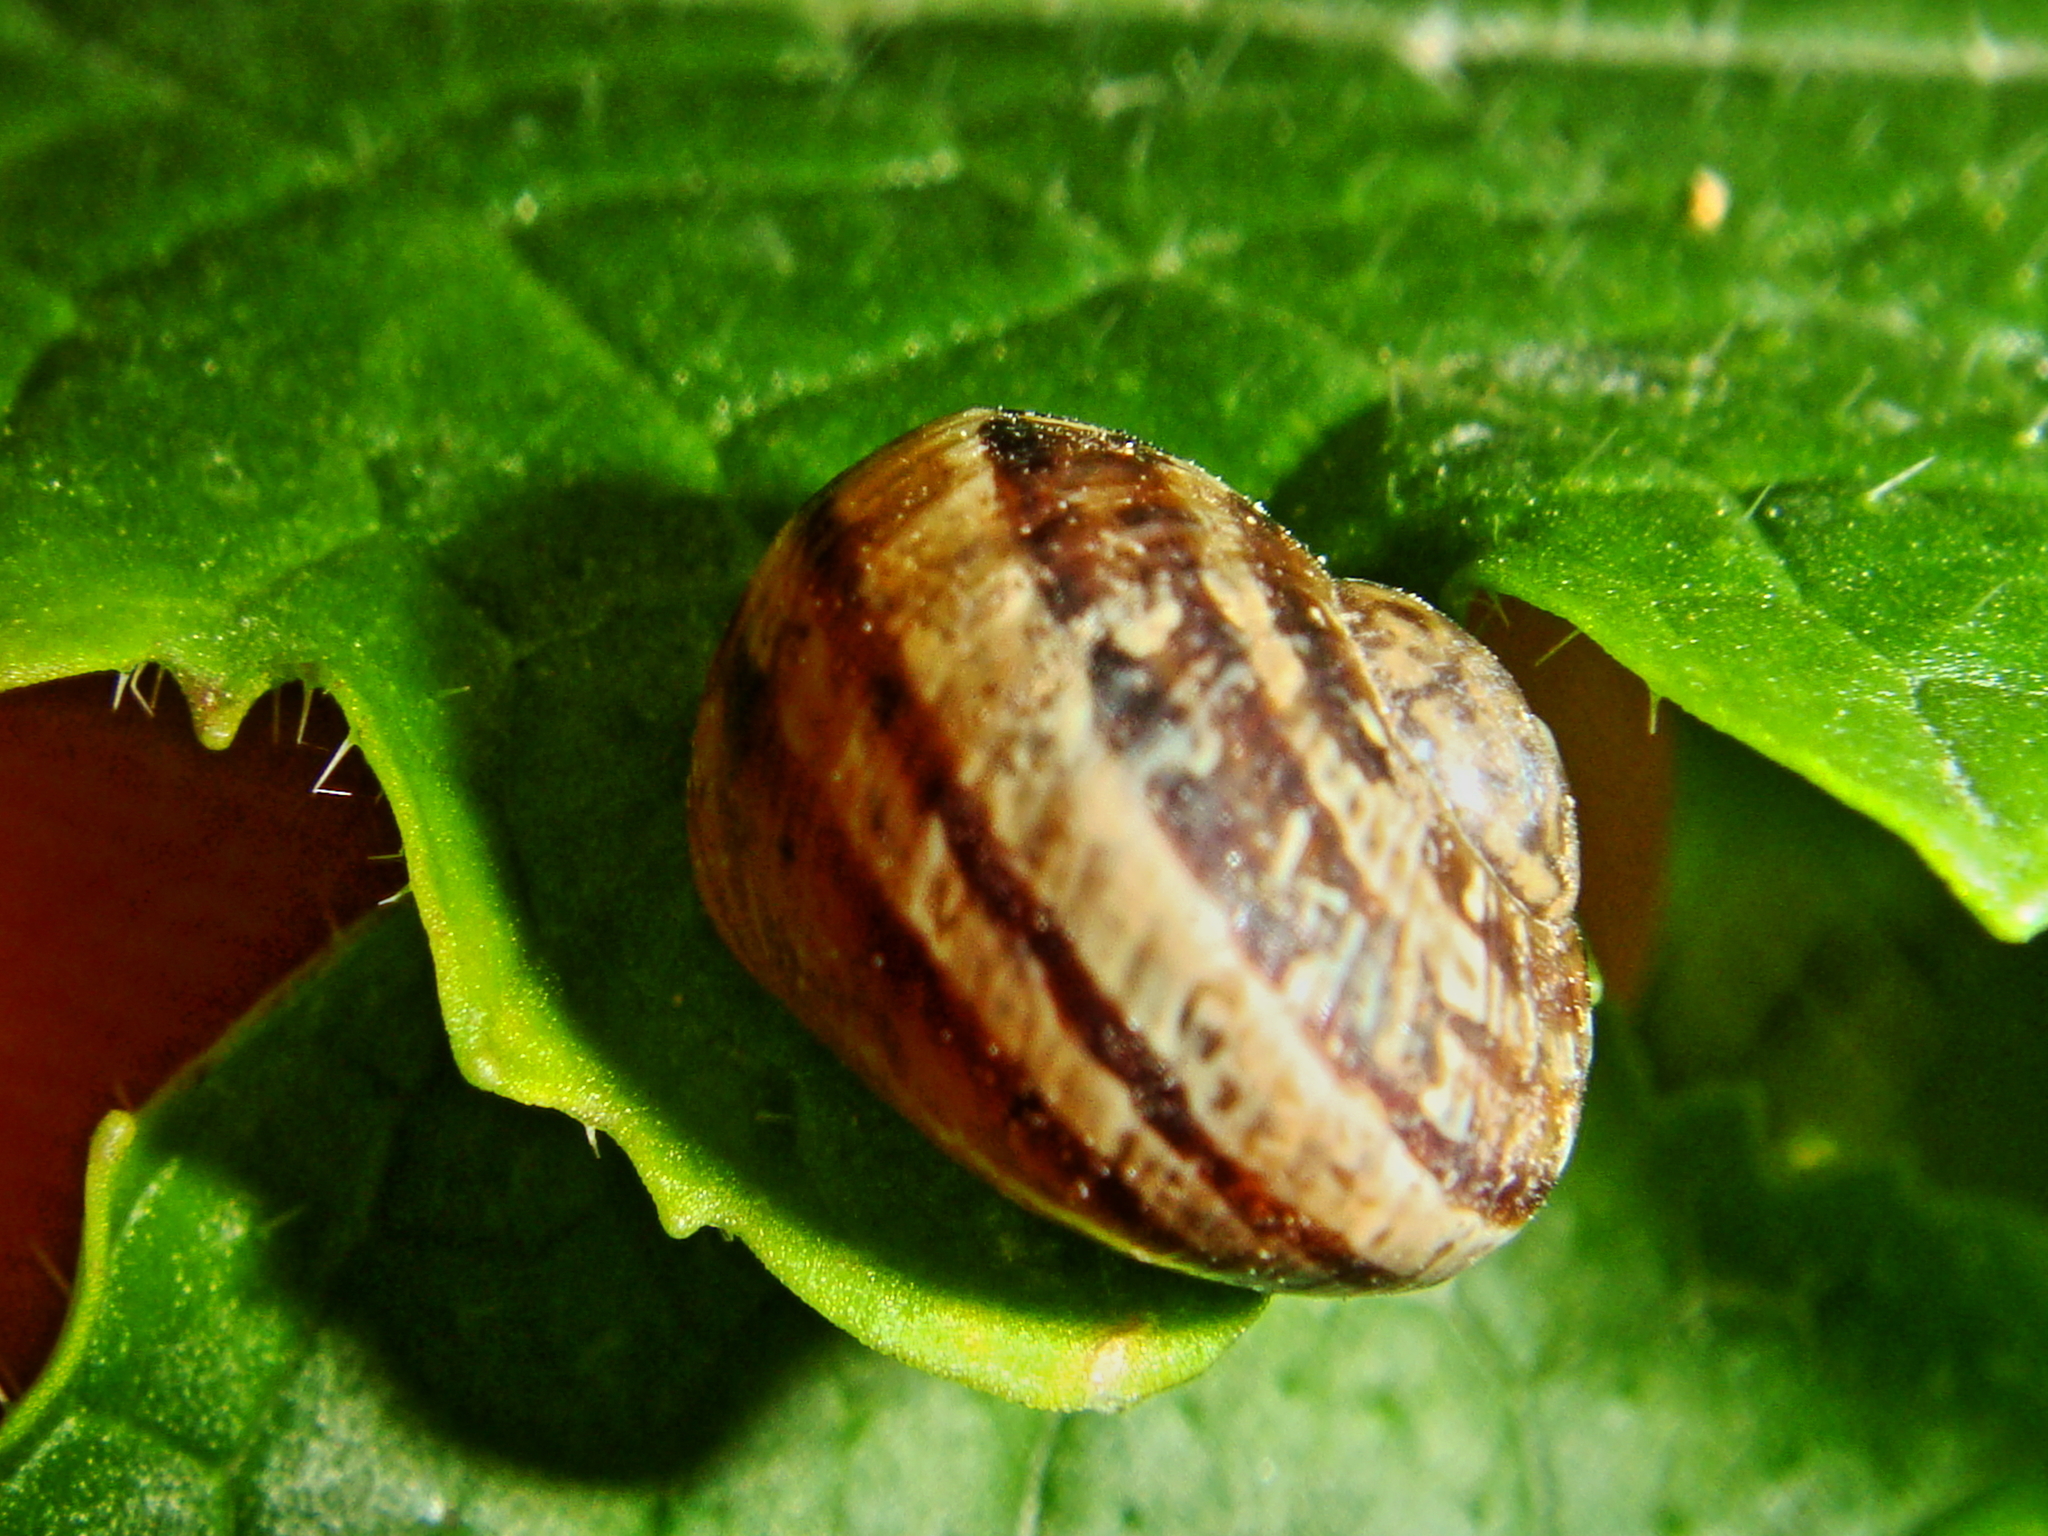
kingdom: Animalia
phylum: Mollusca
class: Gastropoda
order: Stylommatophora
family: Helicidae
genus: Cornu
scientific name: Cornu aspersum
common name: Brown garden snail
